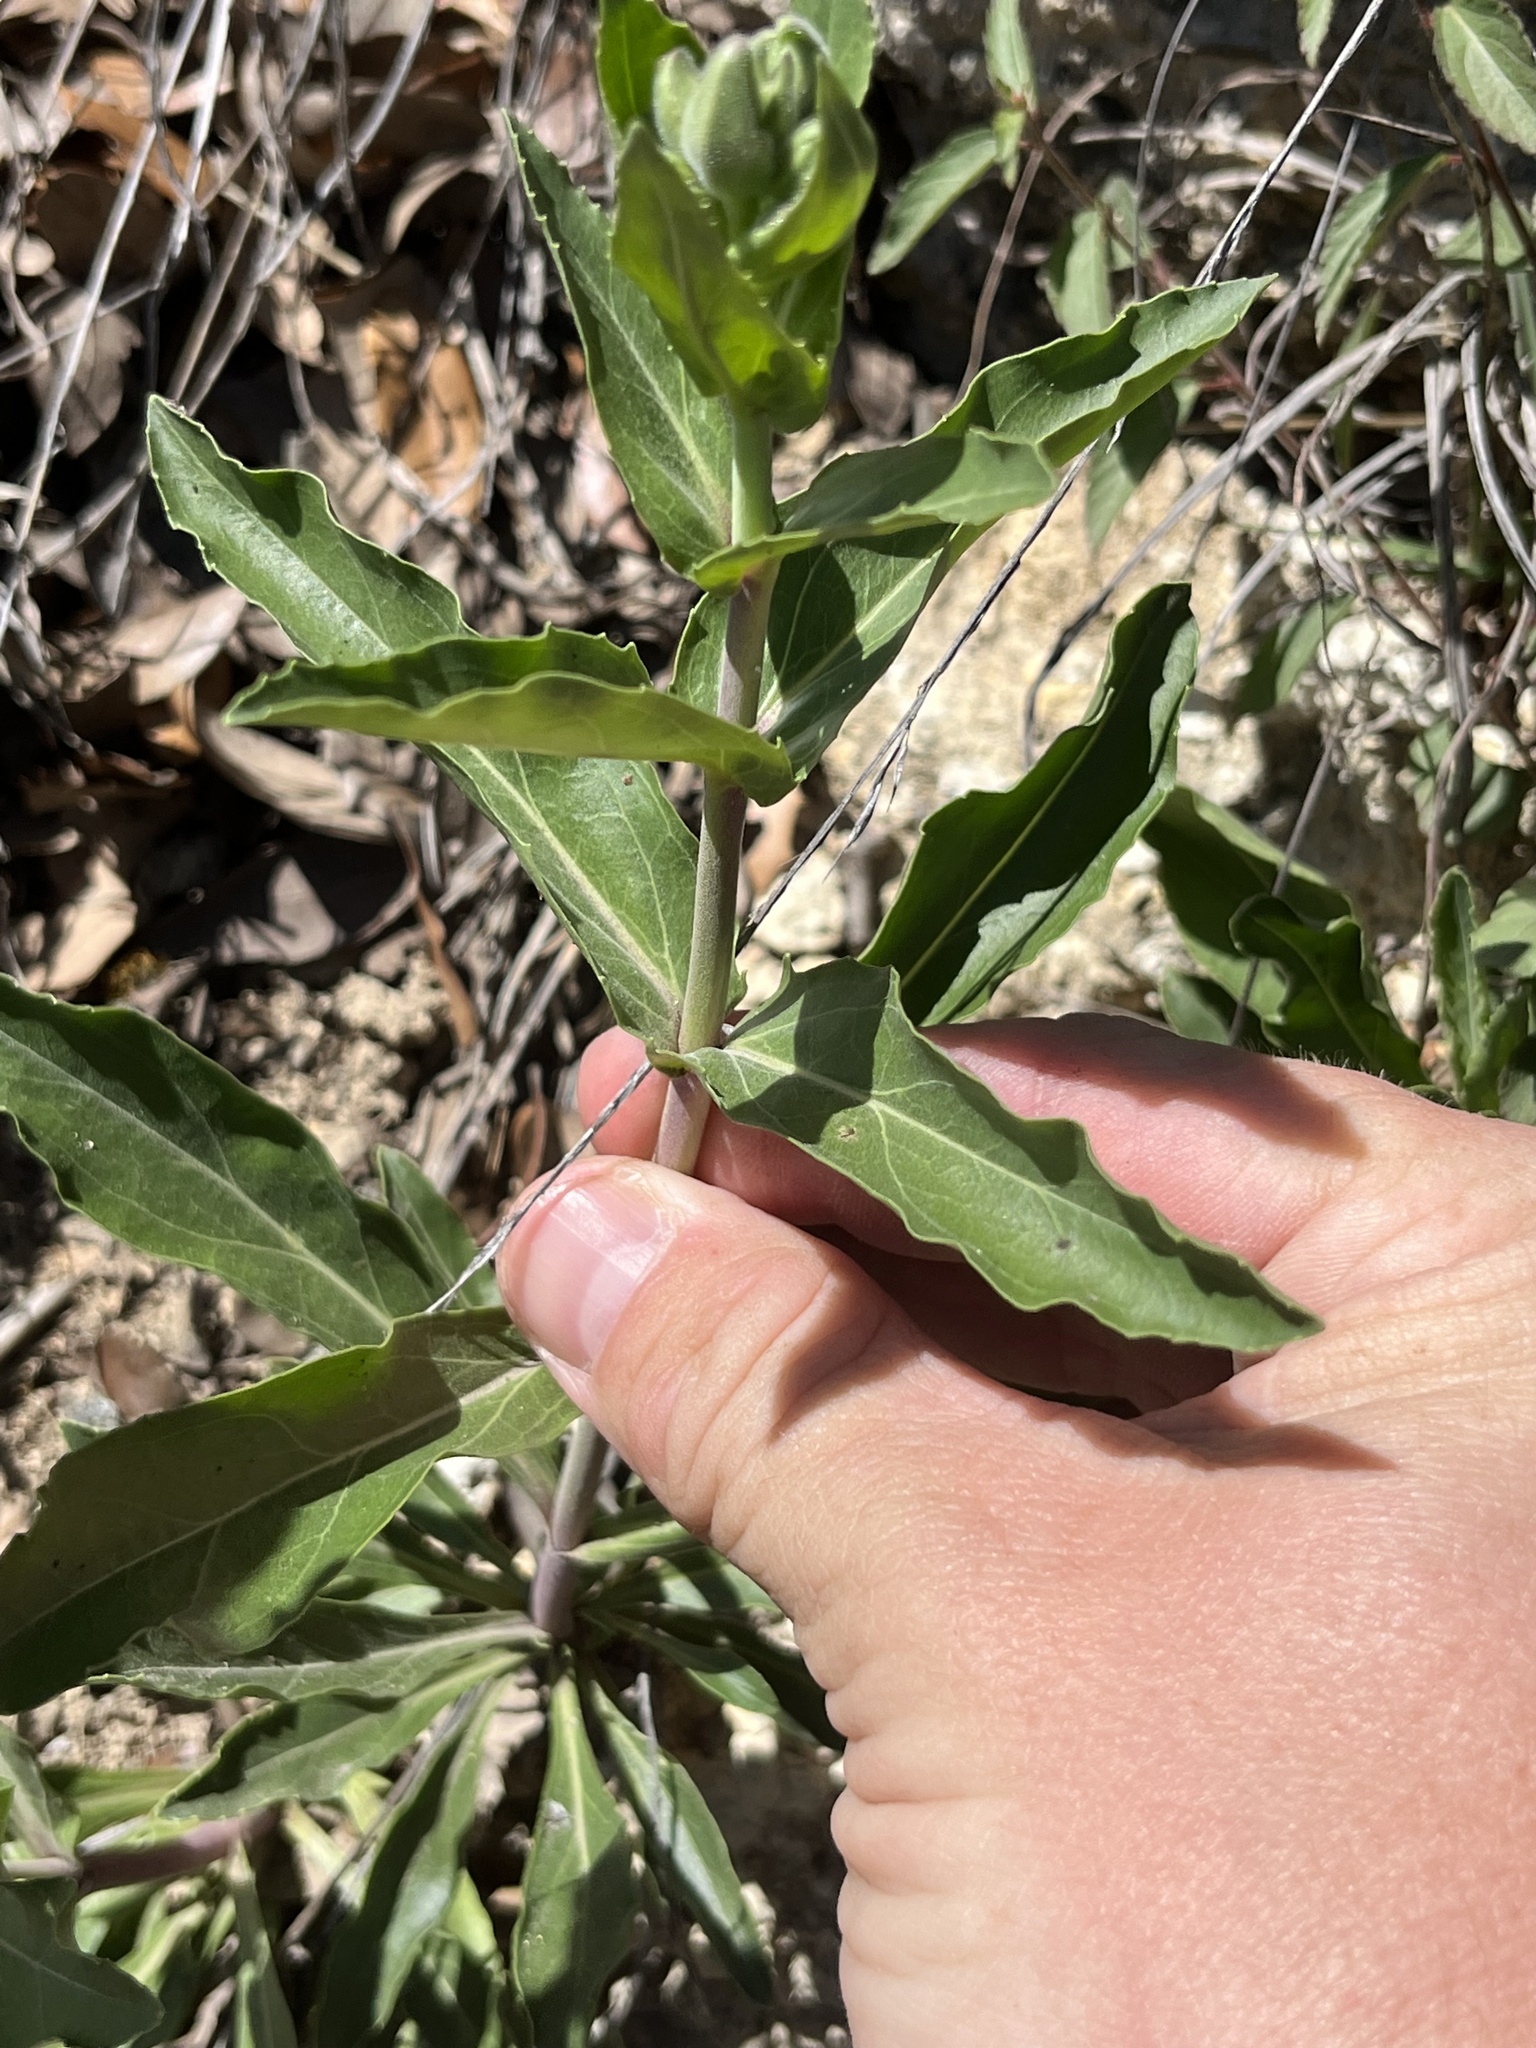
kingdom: Plantae
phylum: Tracheophyta
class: Magnoliopsida
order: Lamiales
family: Plantaginaceae
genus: Penstemon
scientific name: Penstemon cobaea
